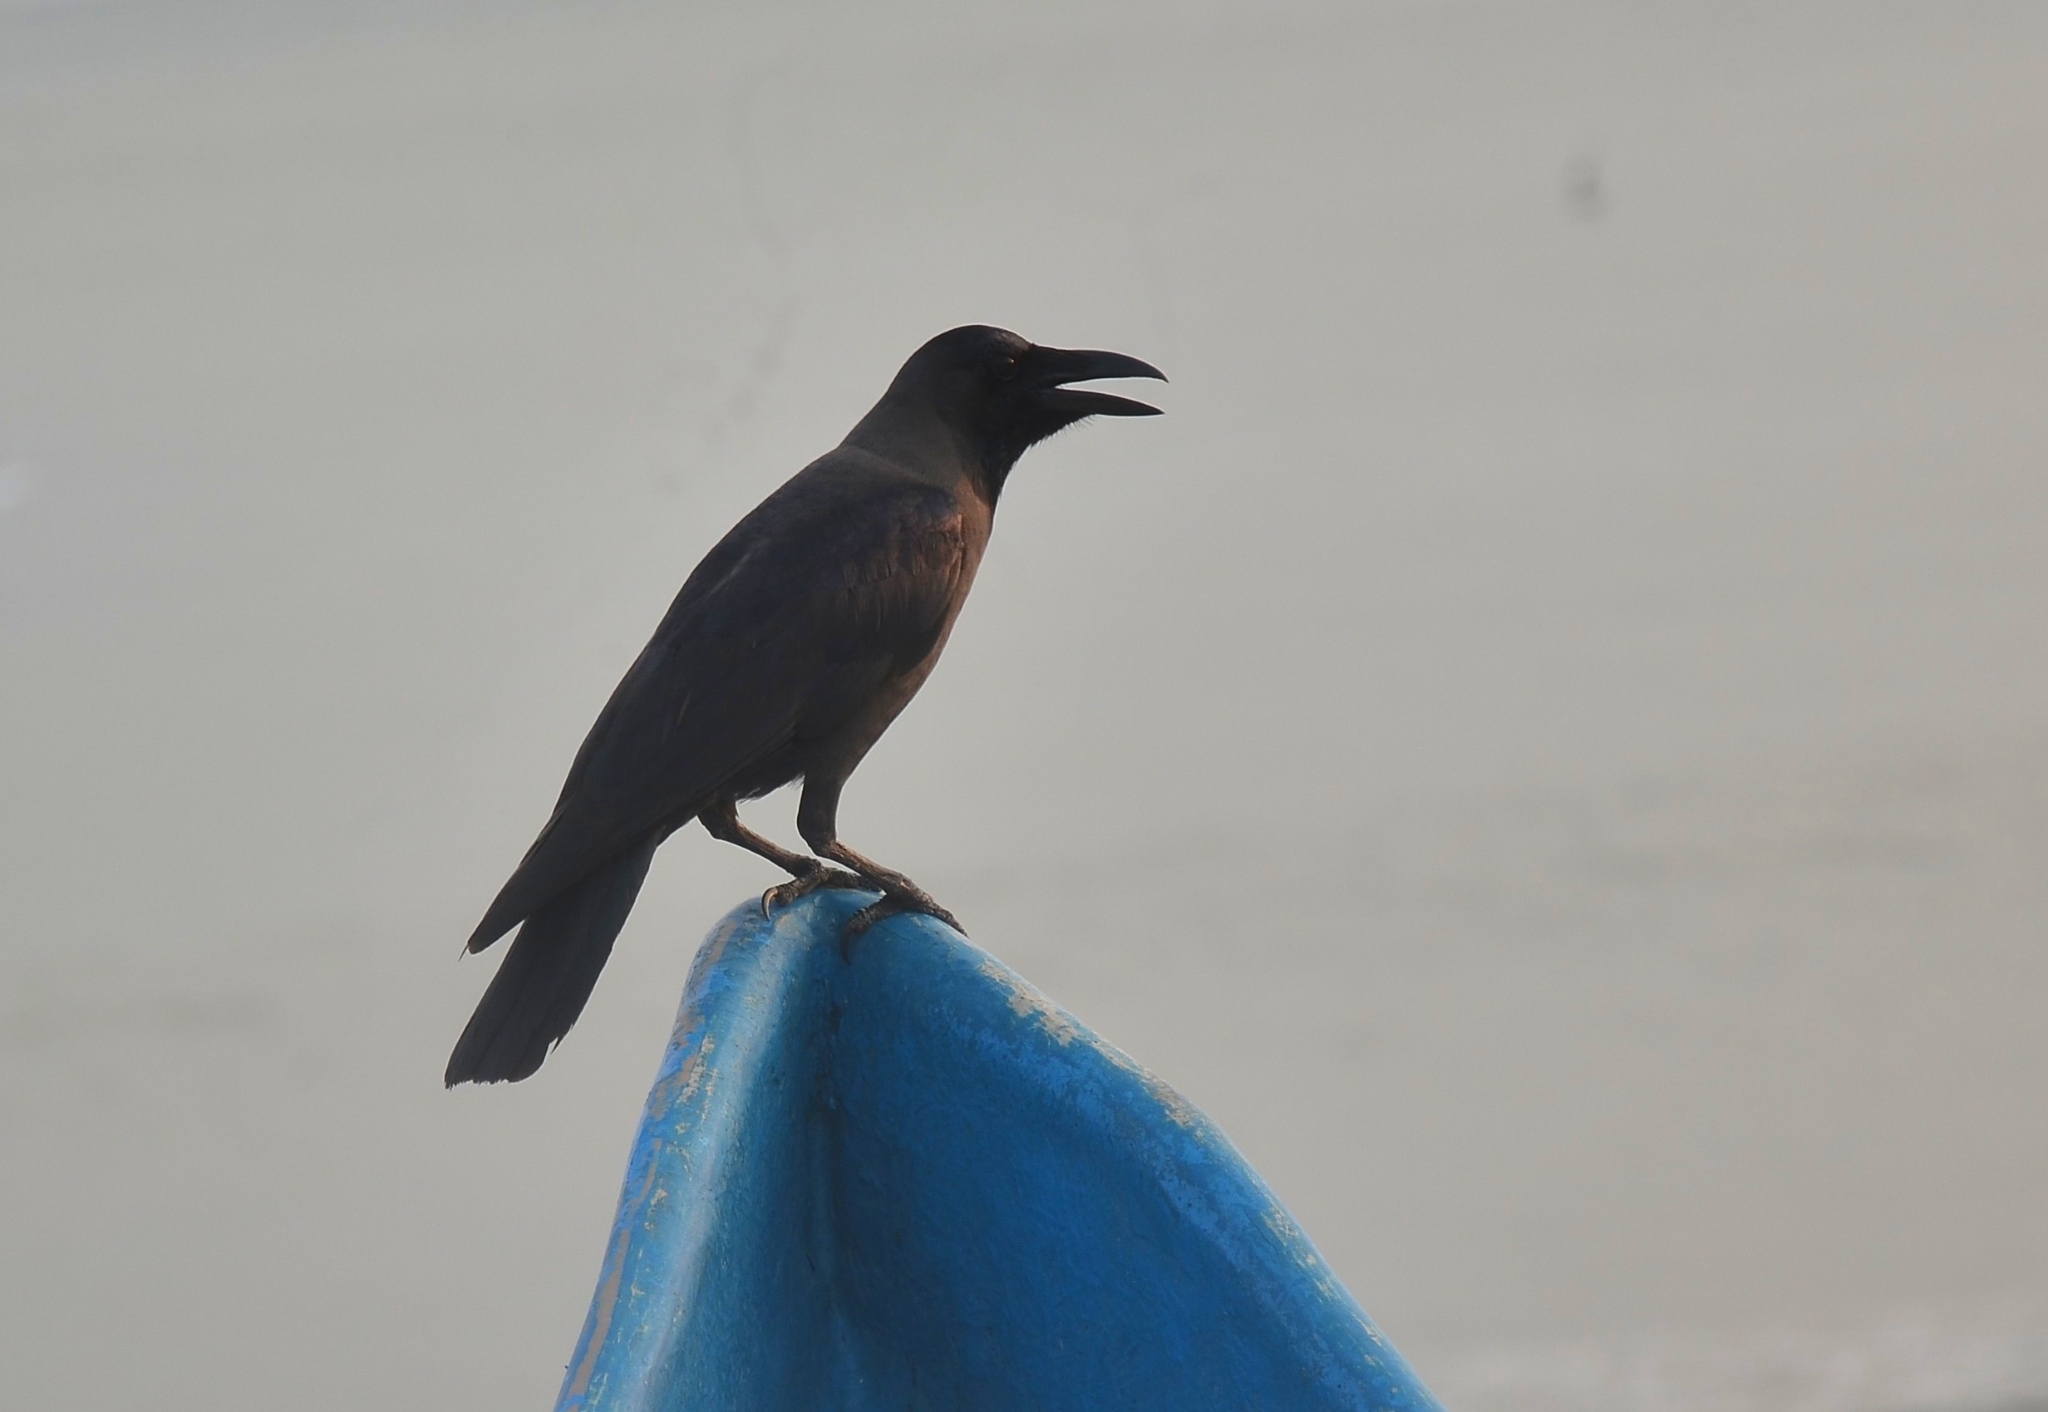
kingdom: Animalia
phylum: Chordata
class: Aves
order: Passeriformes
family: Corvidae
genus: Corvus
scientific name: Corvus splendens
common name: House crow
